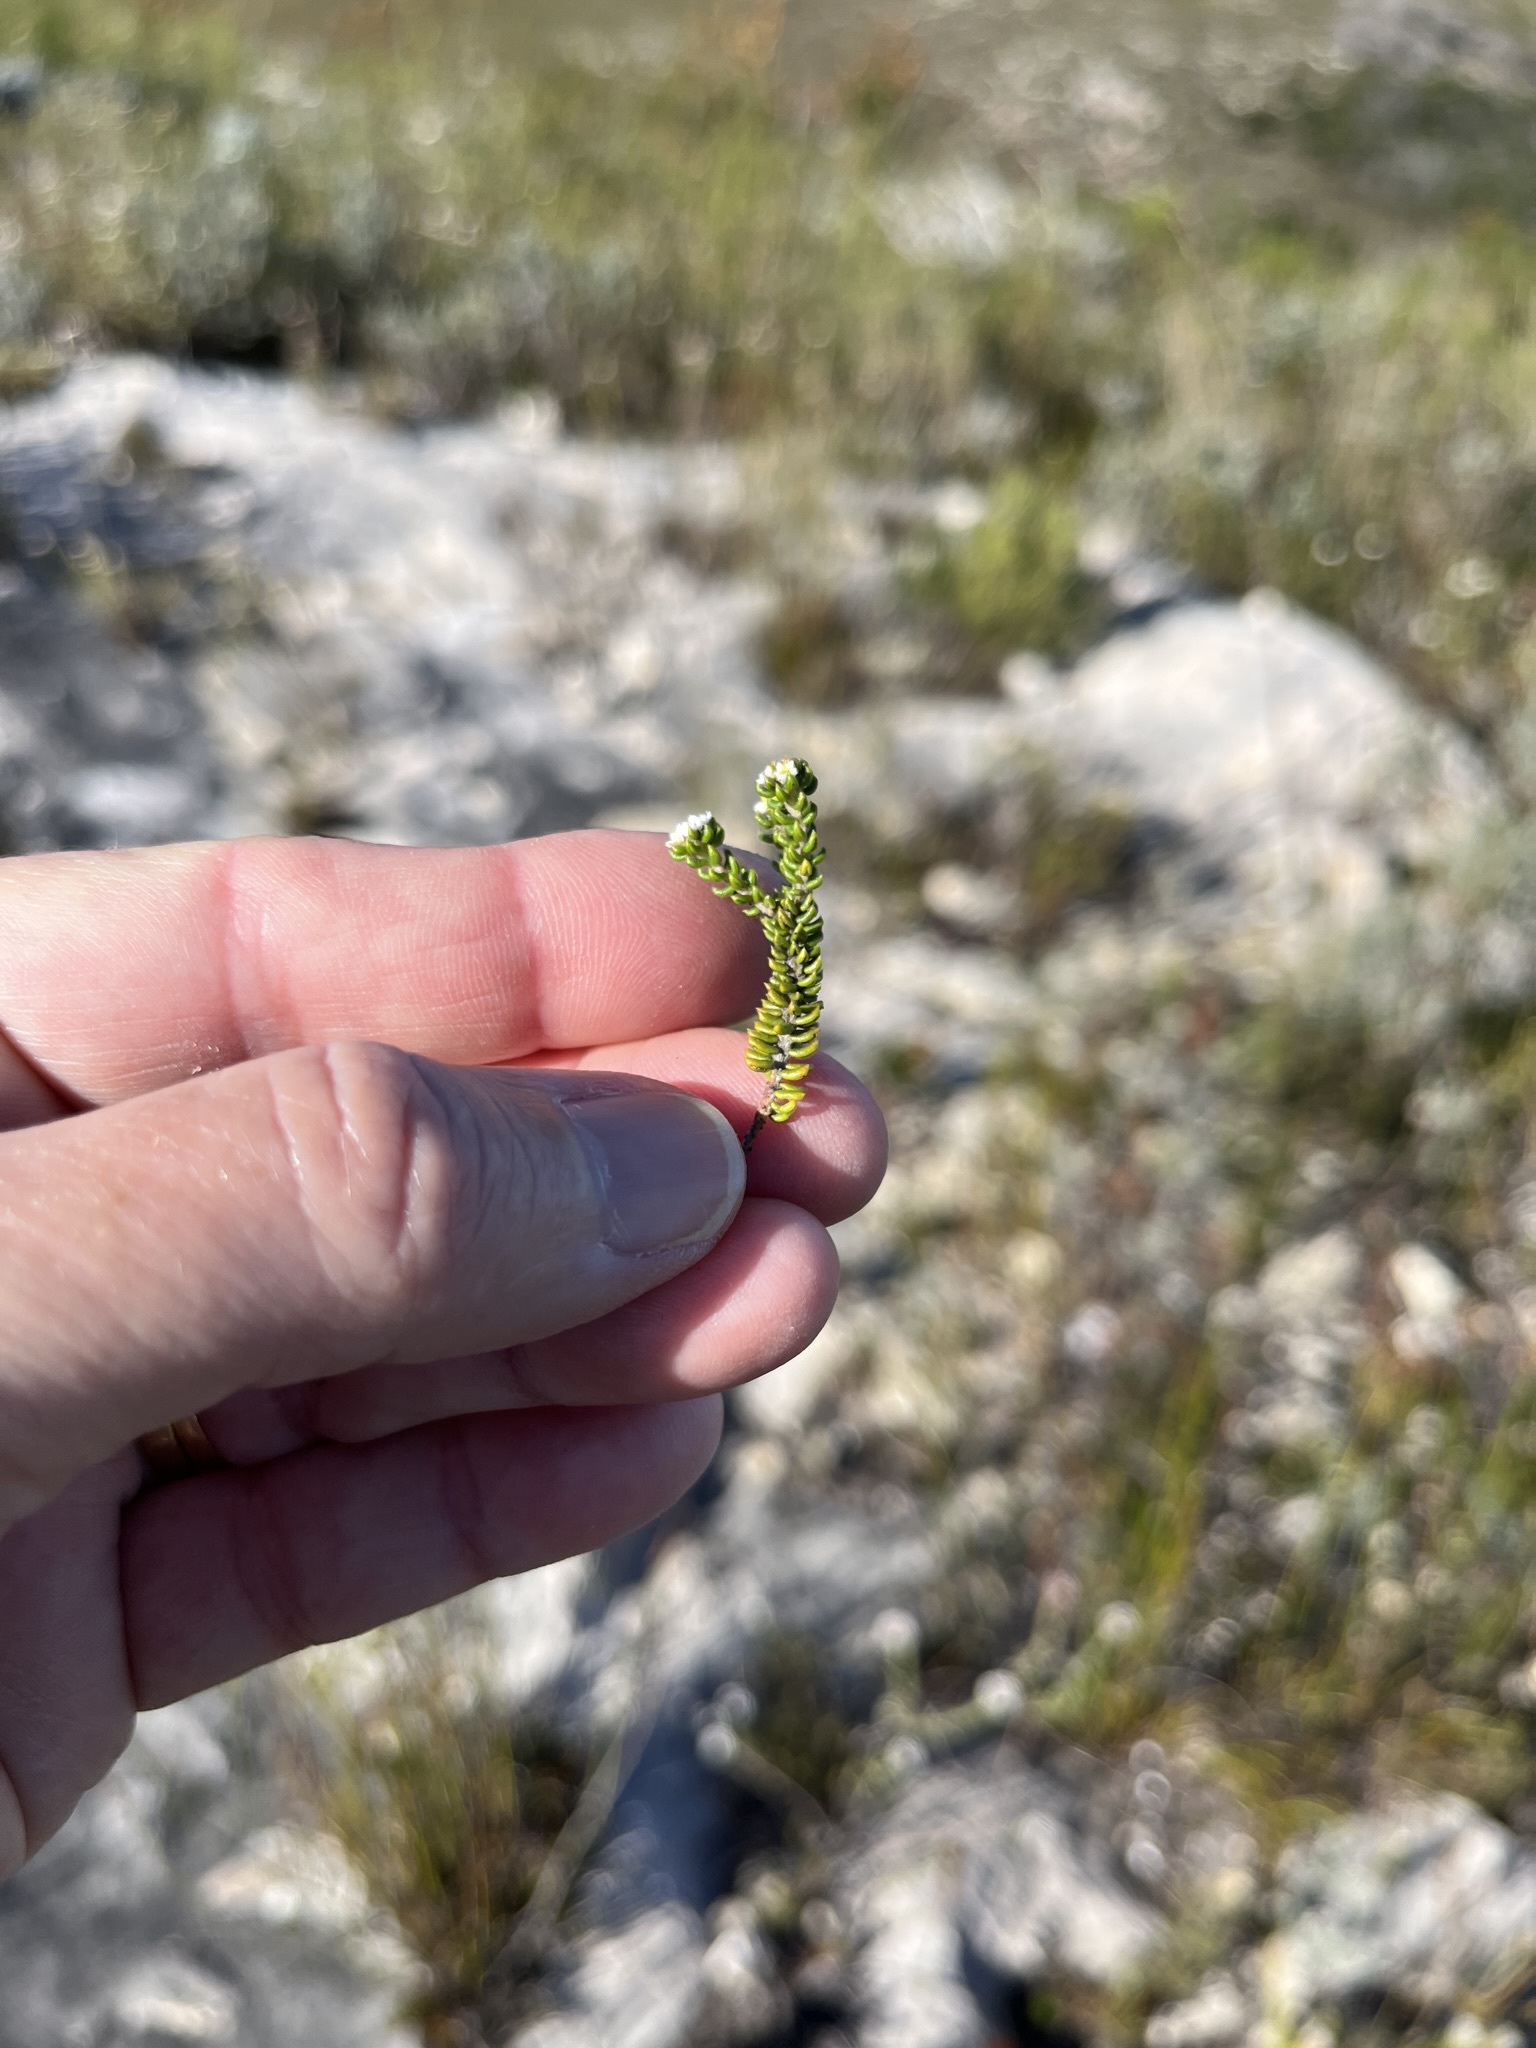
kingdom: Plantae
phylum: Tracheophyta
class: Magnoliopsida
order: Rosales
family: Rhamnaceae
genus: Phylica
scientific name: Phylica incurvata
